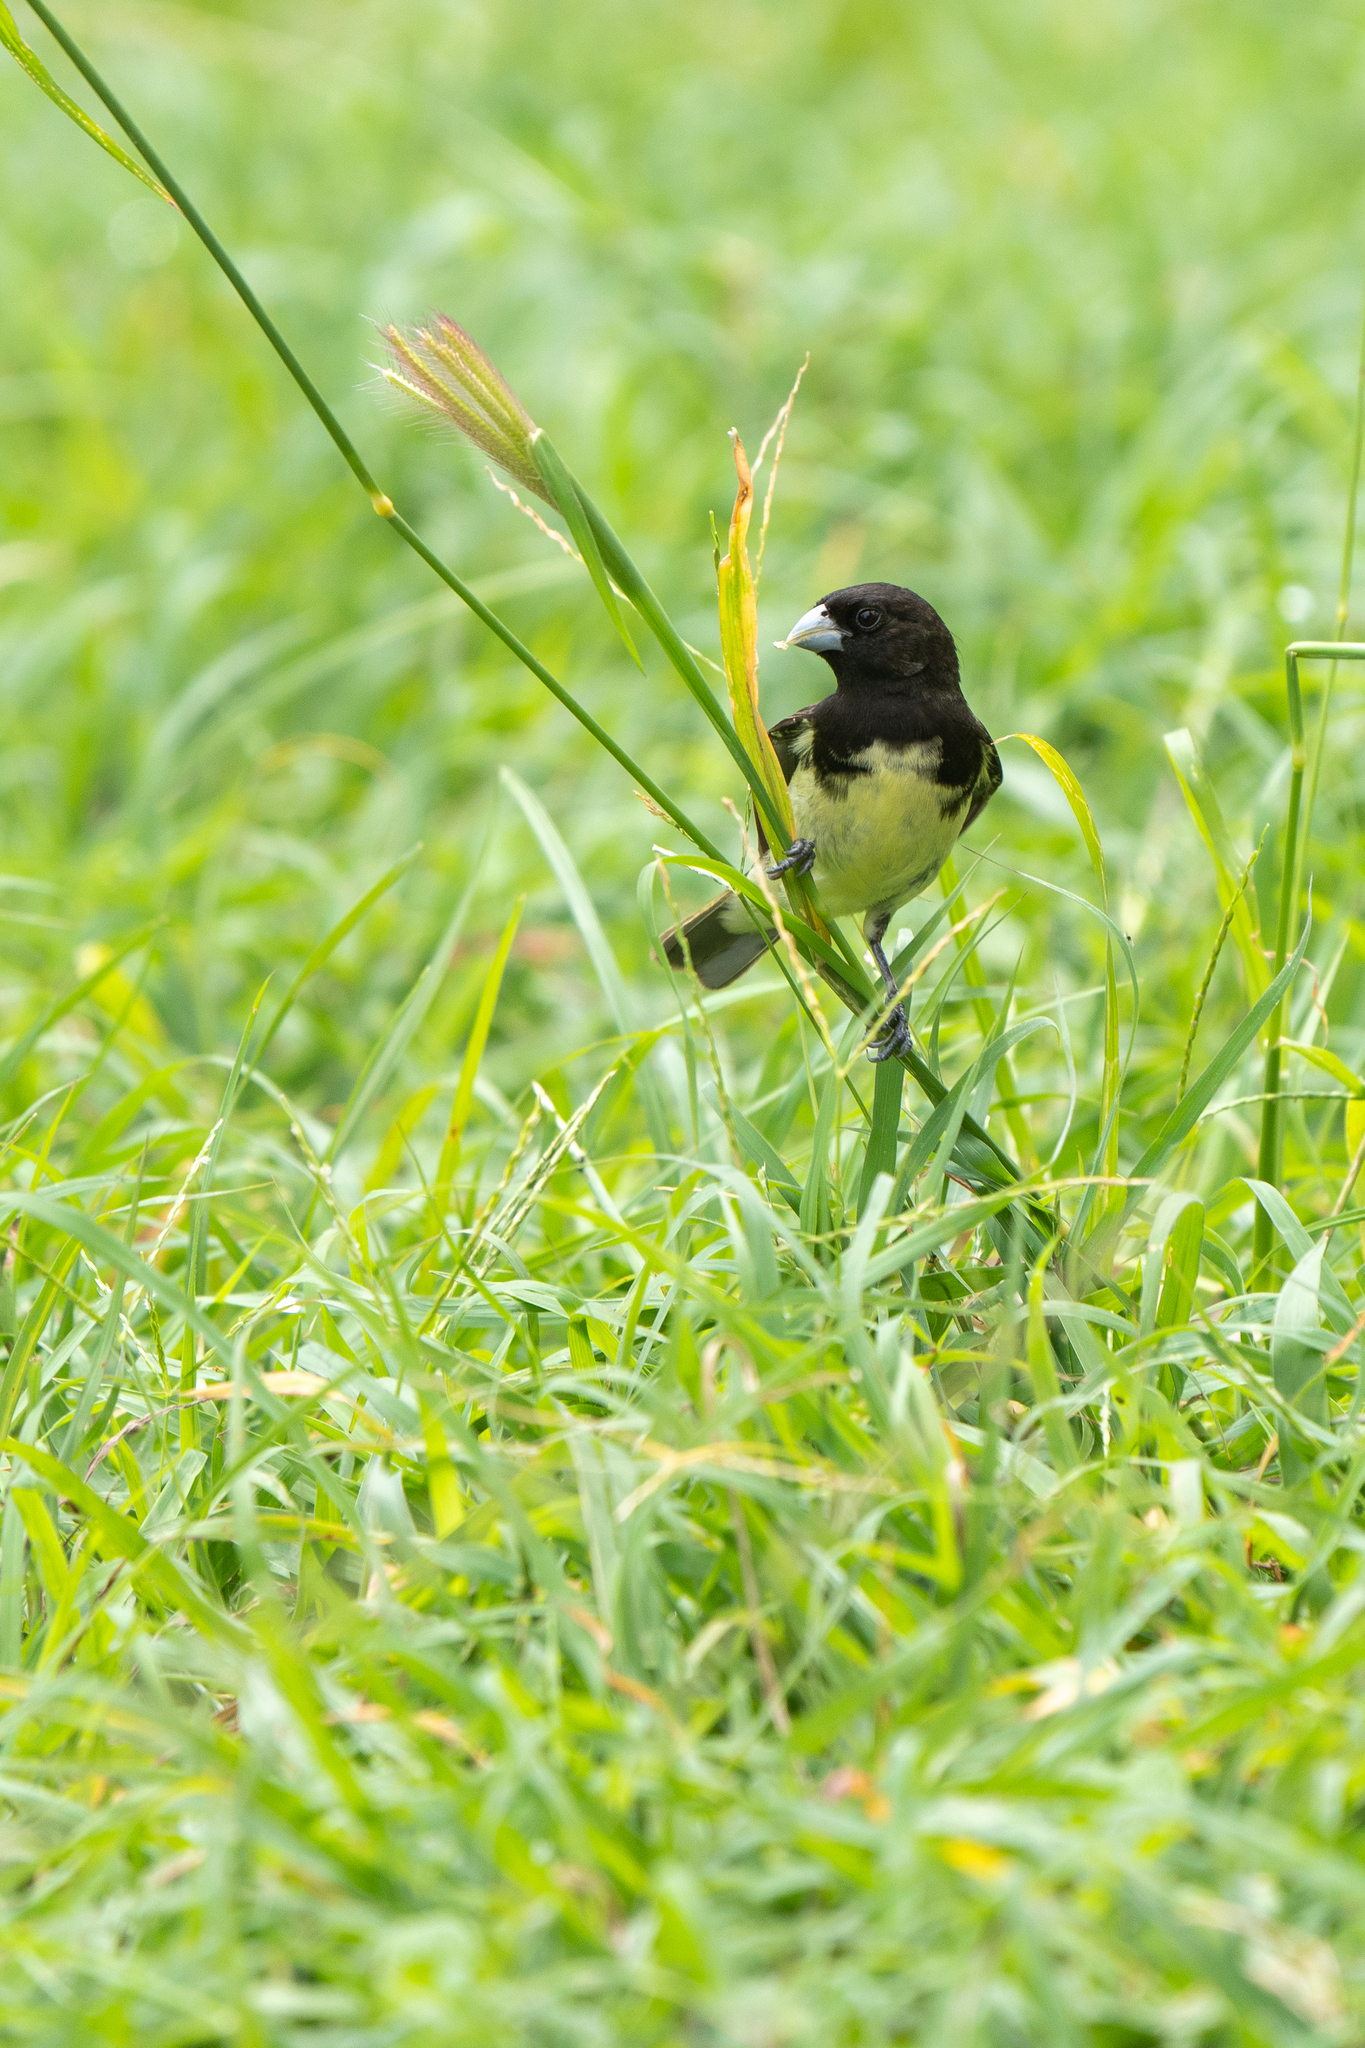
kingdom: Animalia
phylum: Chordata
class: Aves
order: Passeriformes
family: Thraupidae
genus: Sporophila
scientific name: Sporophila nigricollis
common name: Yellow-bellied seedeater
